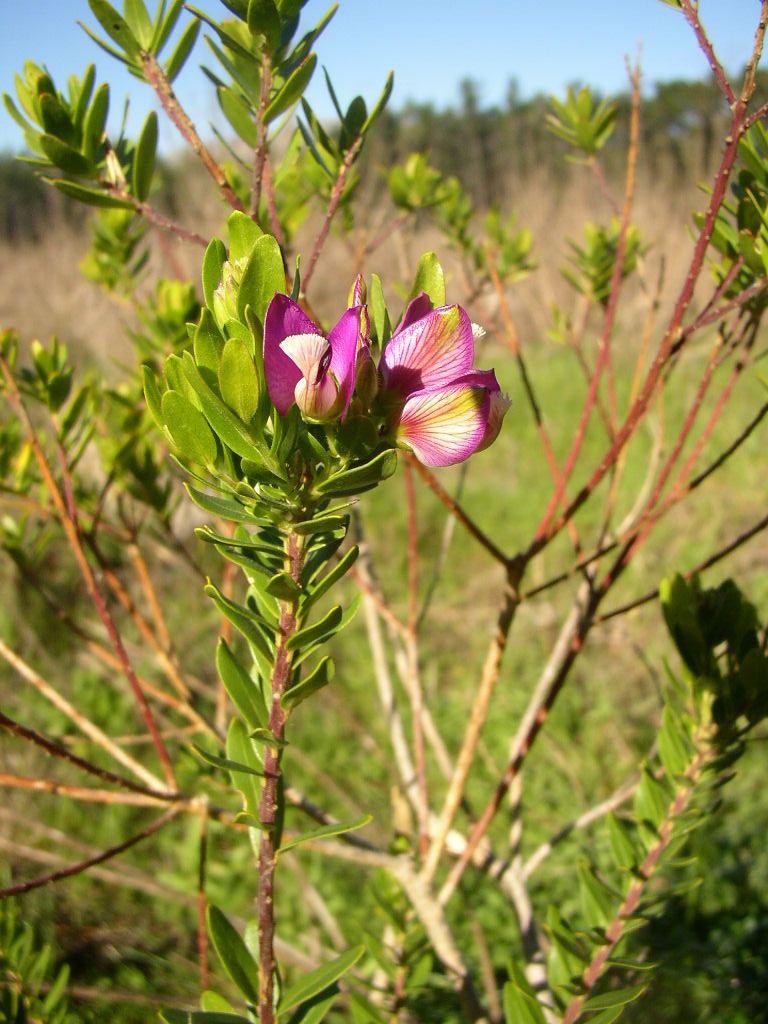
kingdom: Plantae
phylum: Tracheophyta
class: Magnoliopsida
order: Fabales
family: Polygalaceae
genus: Polygala
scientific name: Polygala myrtifolia
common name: Myrtle-leaf milkwort
